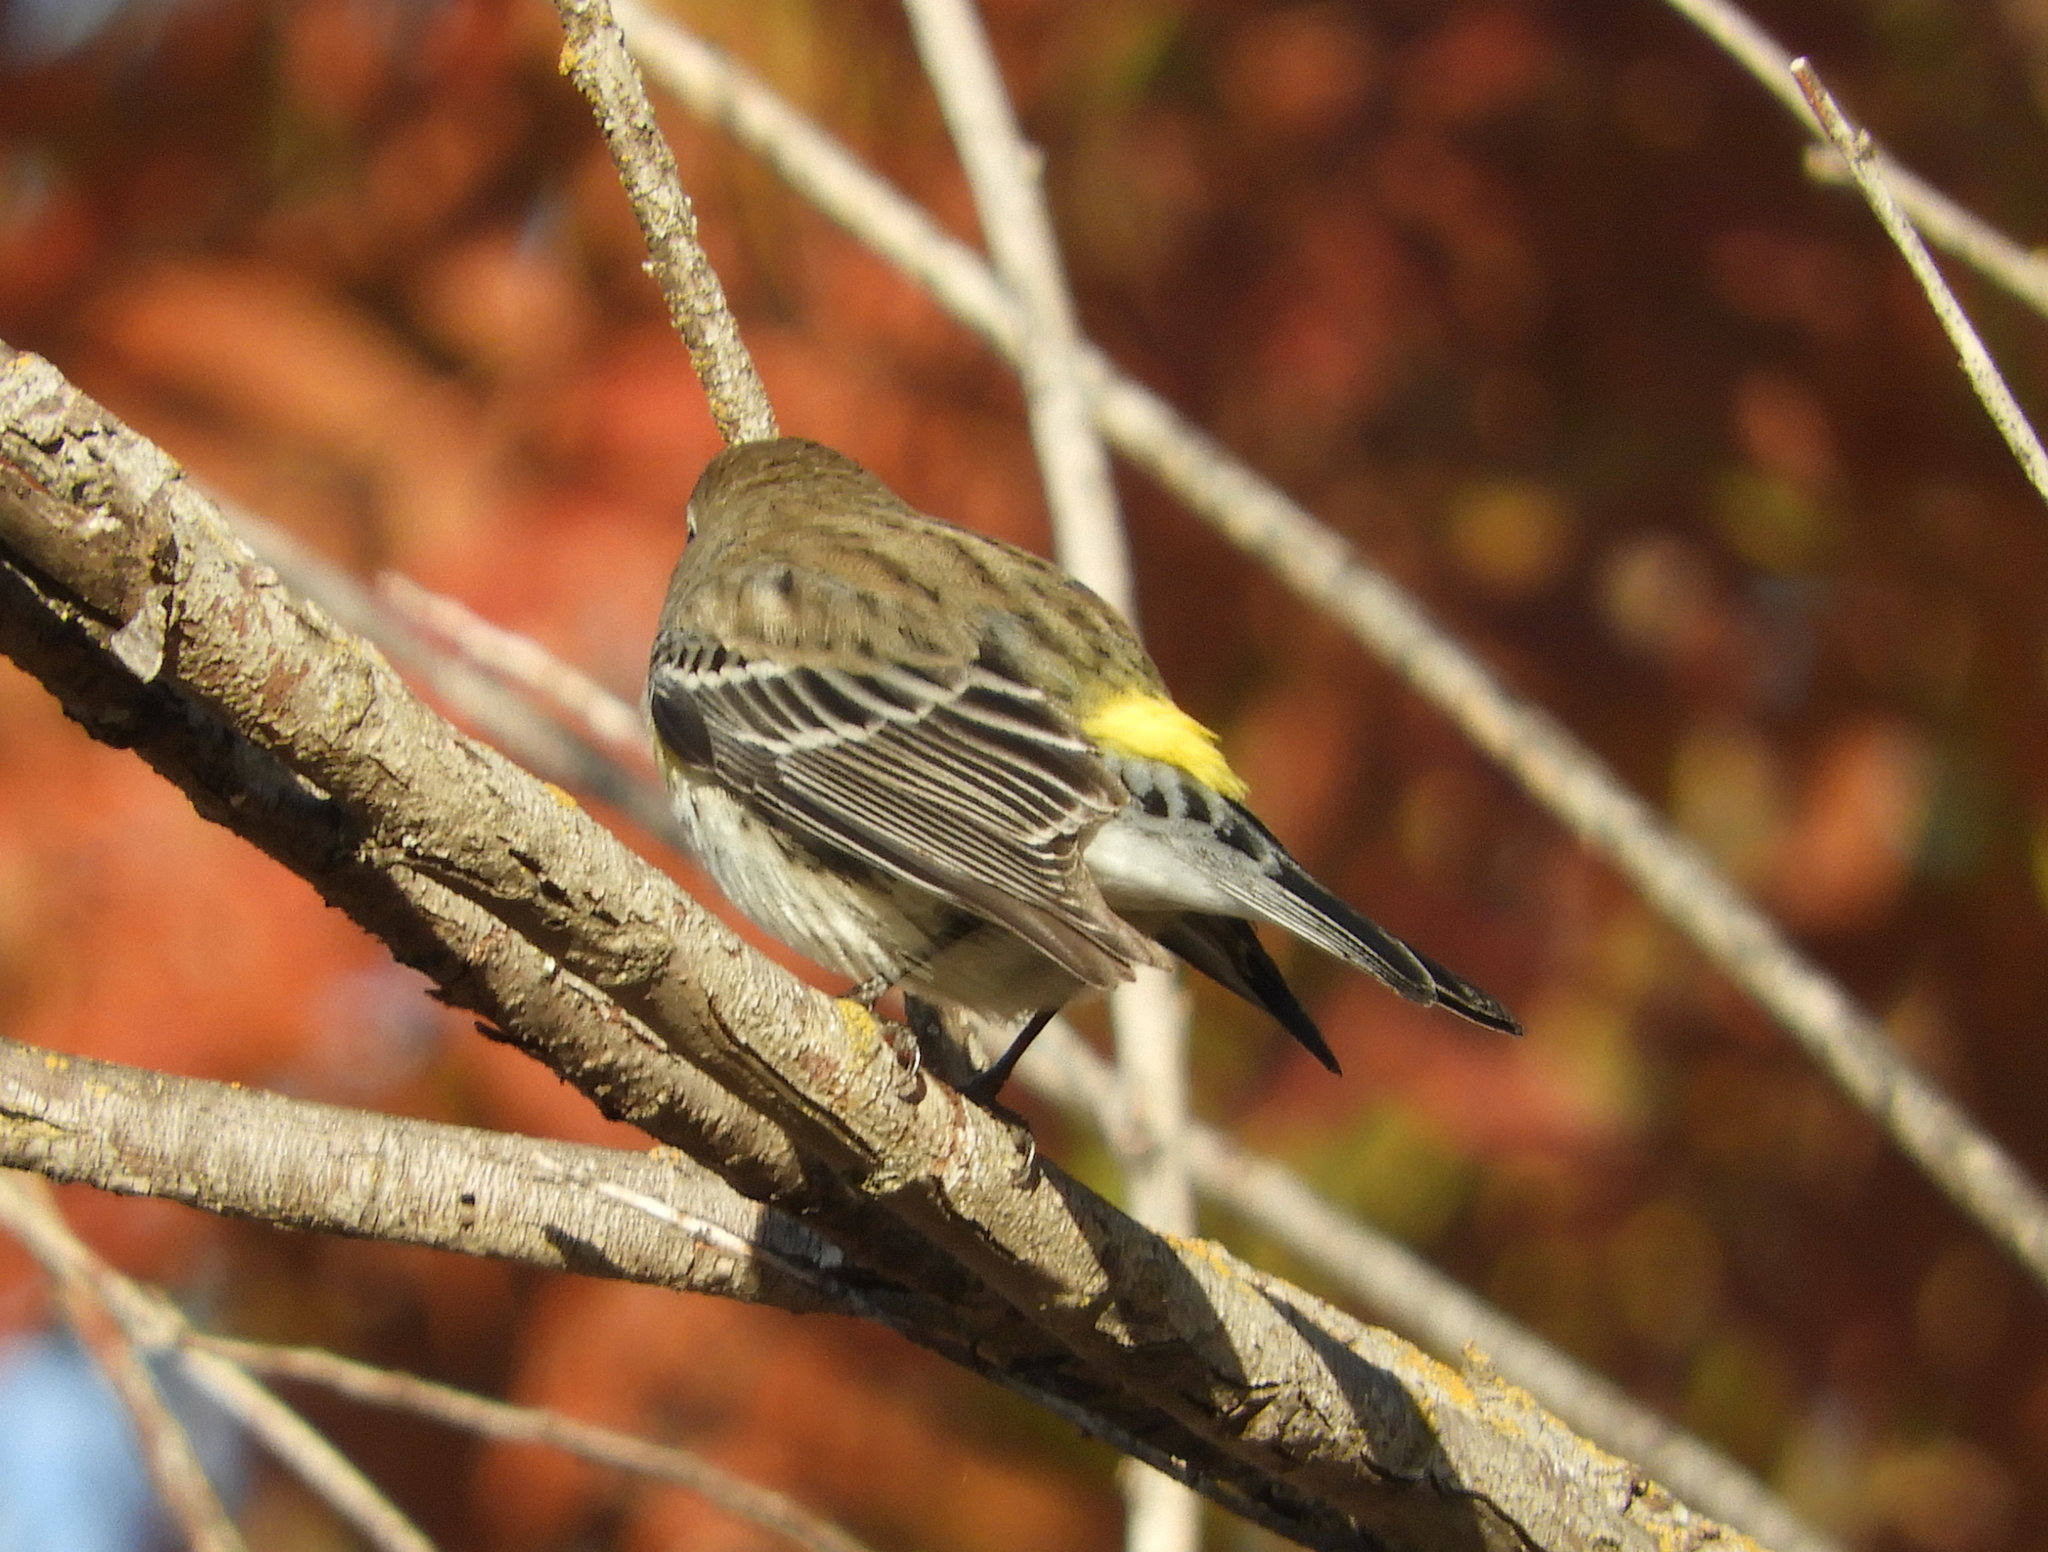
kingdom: Animalia
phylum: Chordata
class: Aves
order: Passeriformes
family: Parulidae
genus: Setophaga
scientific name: Setophaga coronata
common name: Myrtle warbler
